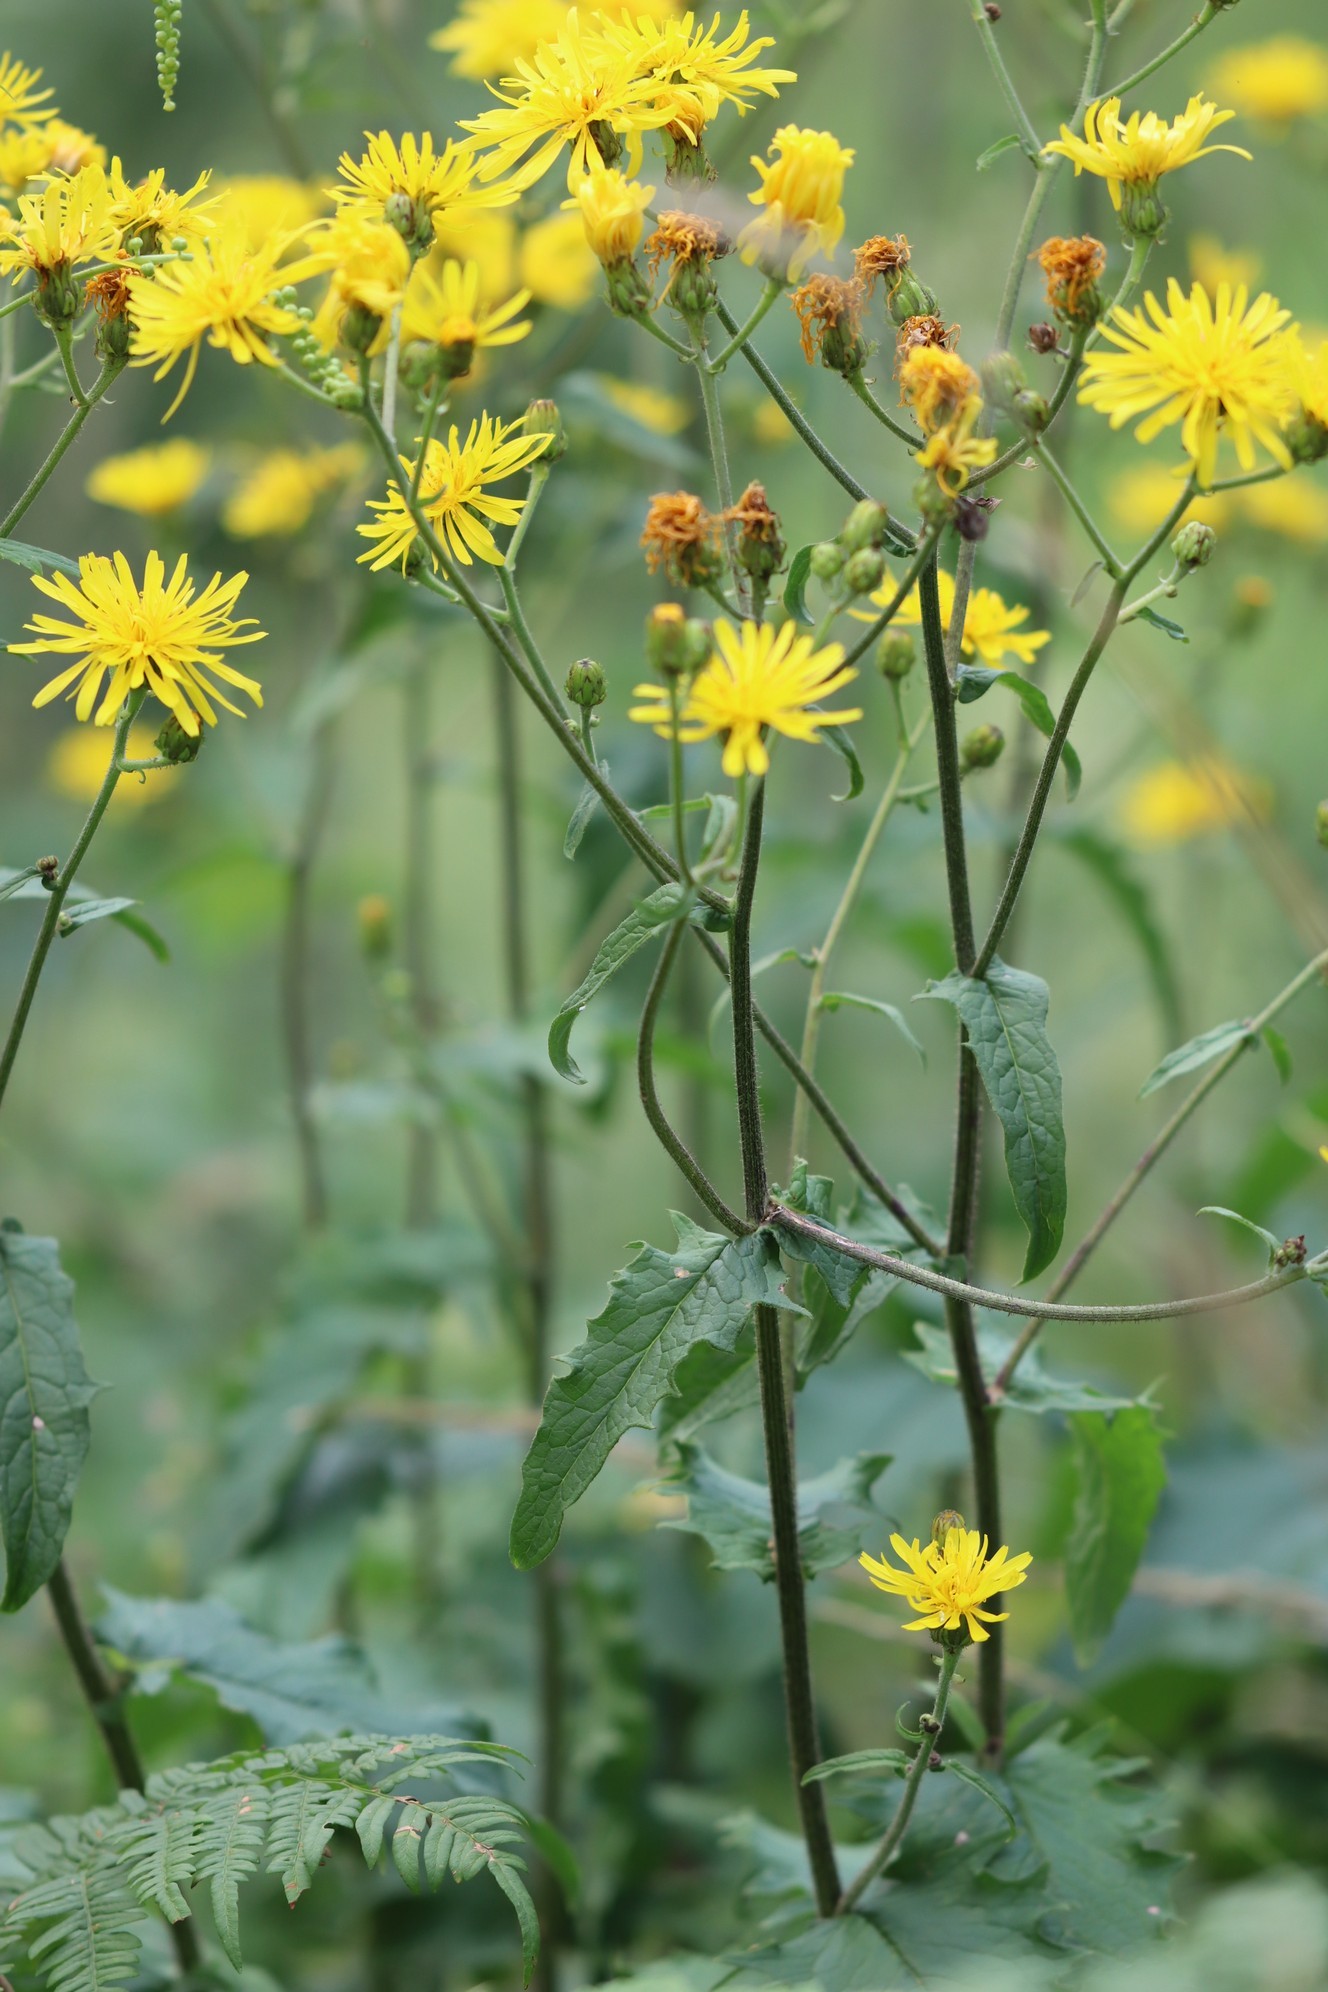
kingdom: Plantae
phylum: Tracheophyta
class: Magnoliopsida
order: Asterales
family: Asteraceae
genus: Crepis
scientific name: Crepis sibirica
